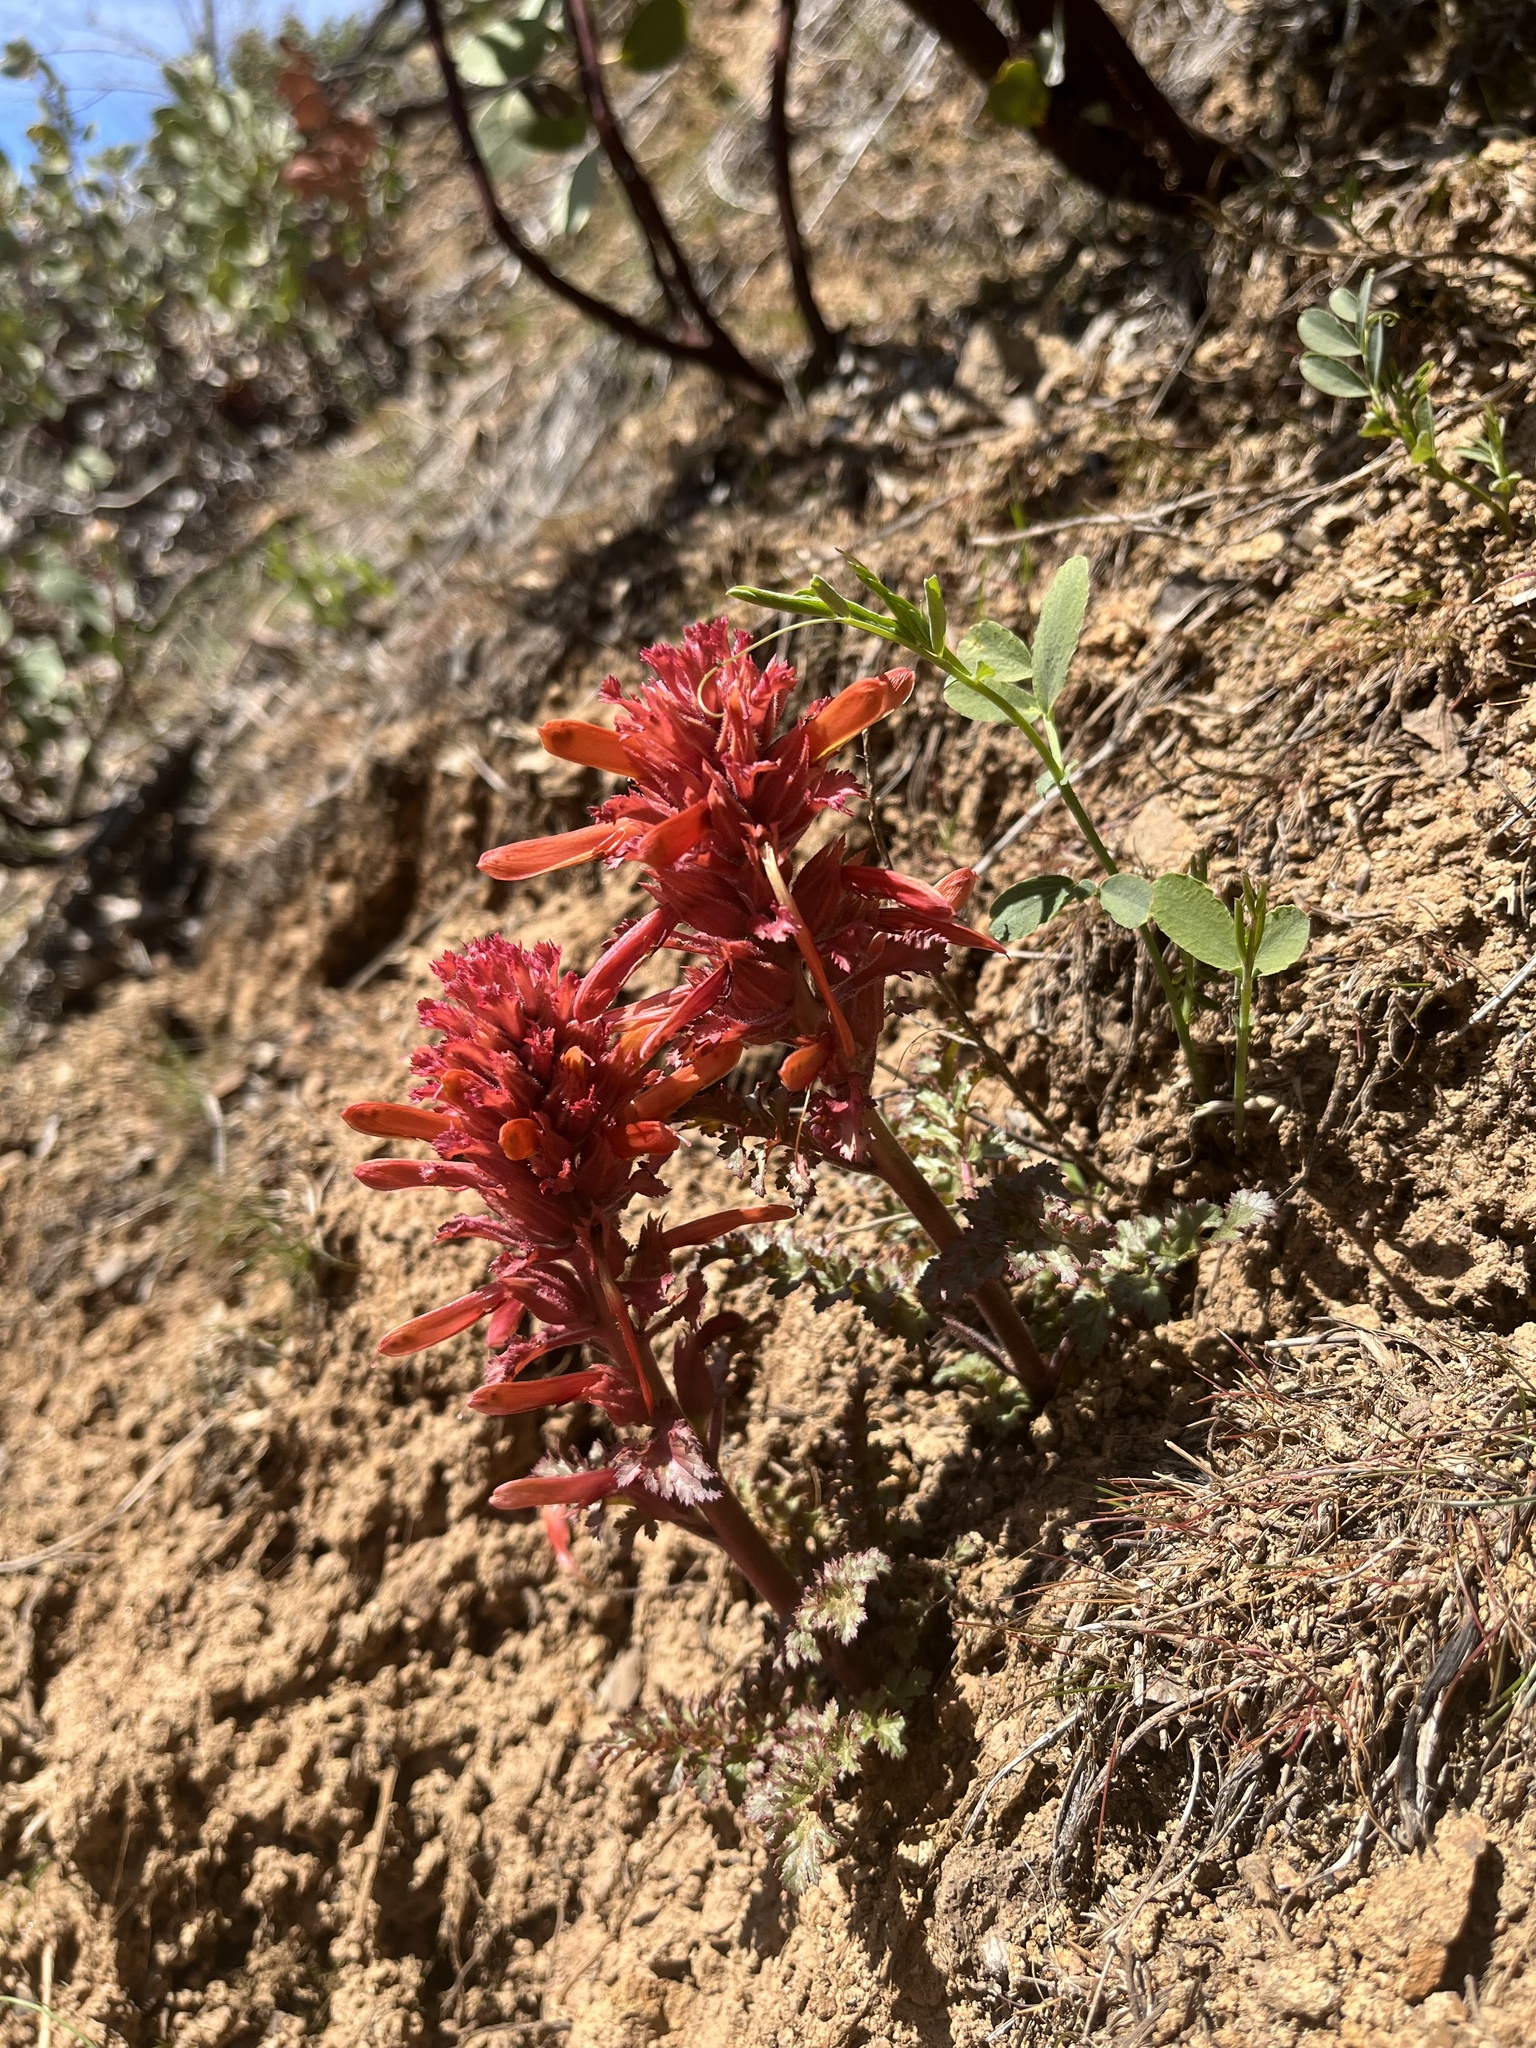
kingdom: Plantae
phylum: Tracheophyta
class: Magnoliopsida
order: Lamiales
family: Orobanchaceae
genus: Pedicularis
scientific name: Pedicularis densiflora
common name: Indian warrior
